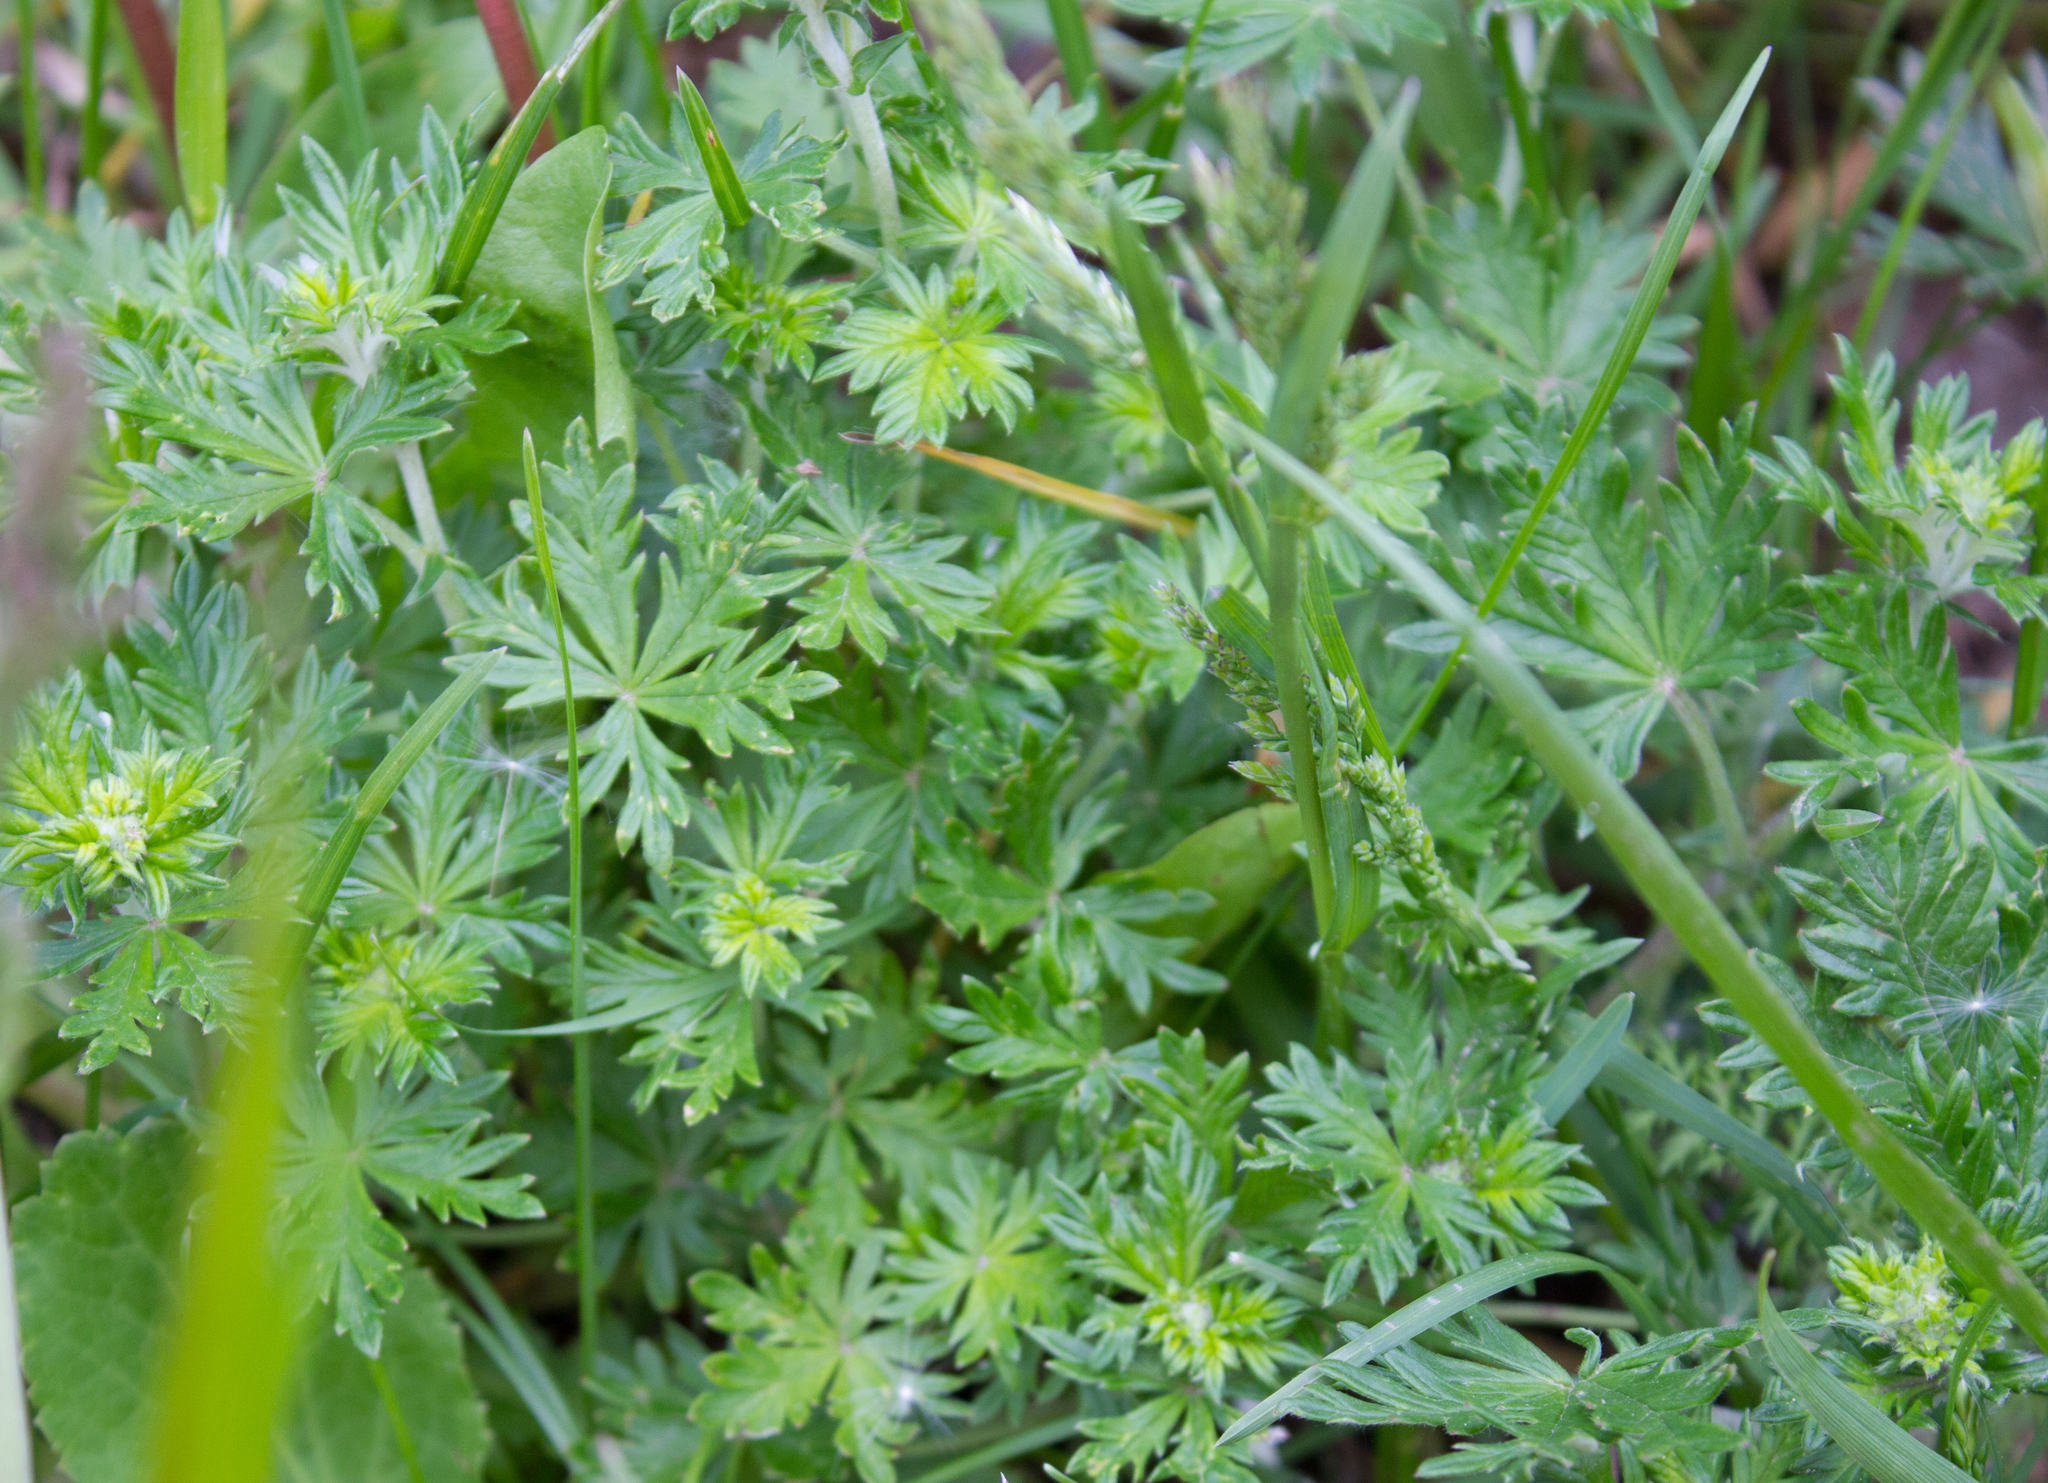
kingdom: Plantae
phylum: Tracheophyta
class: Magnoliopsida
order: Rosales
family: Rosaceae
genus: Potentilla
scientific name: Potentilla argentea
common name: Hoary cinquefoil
